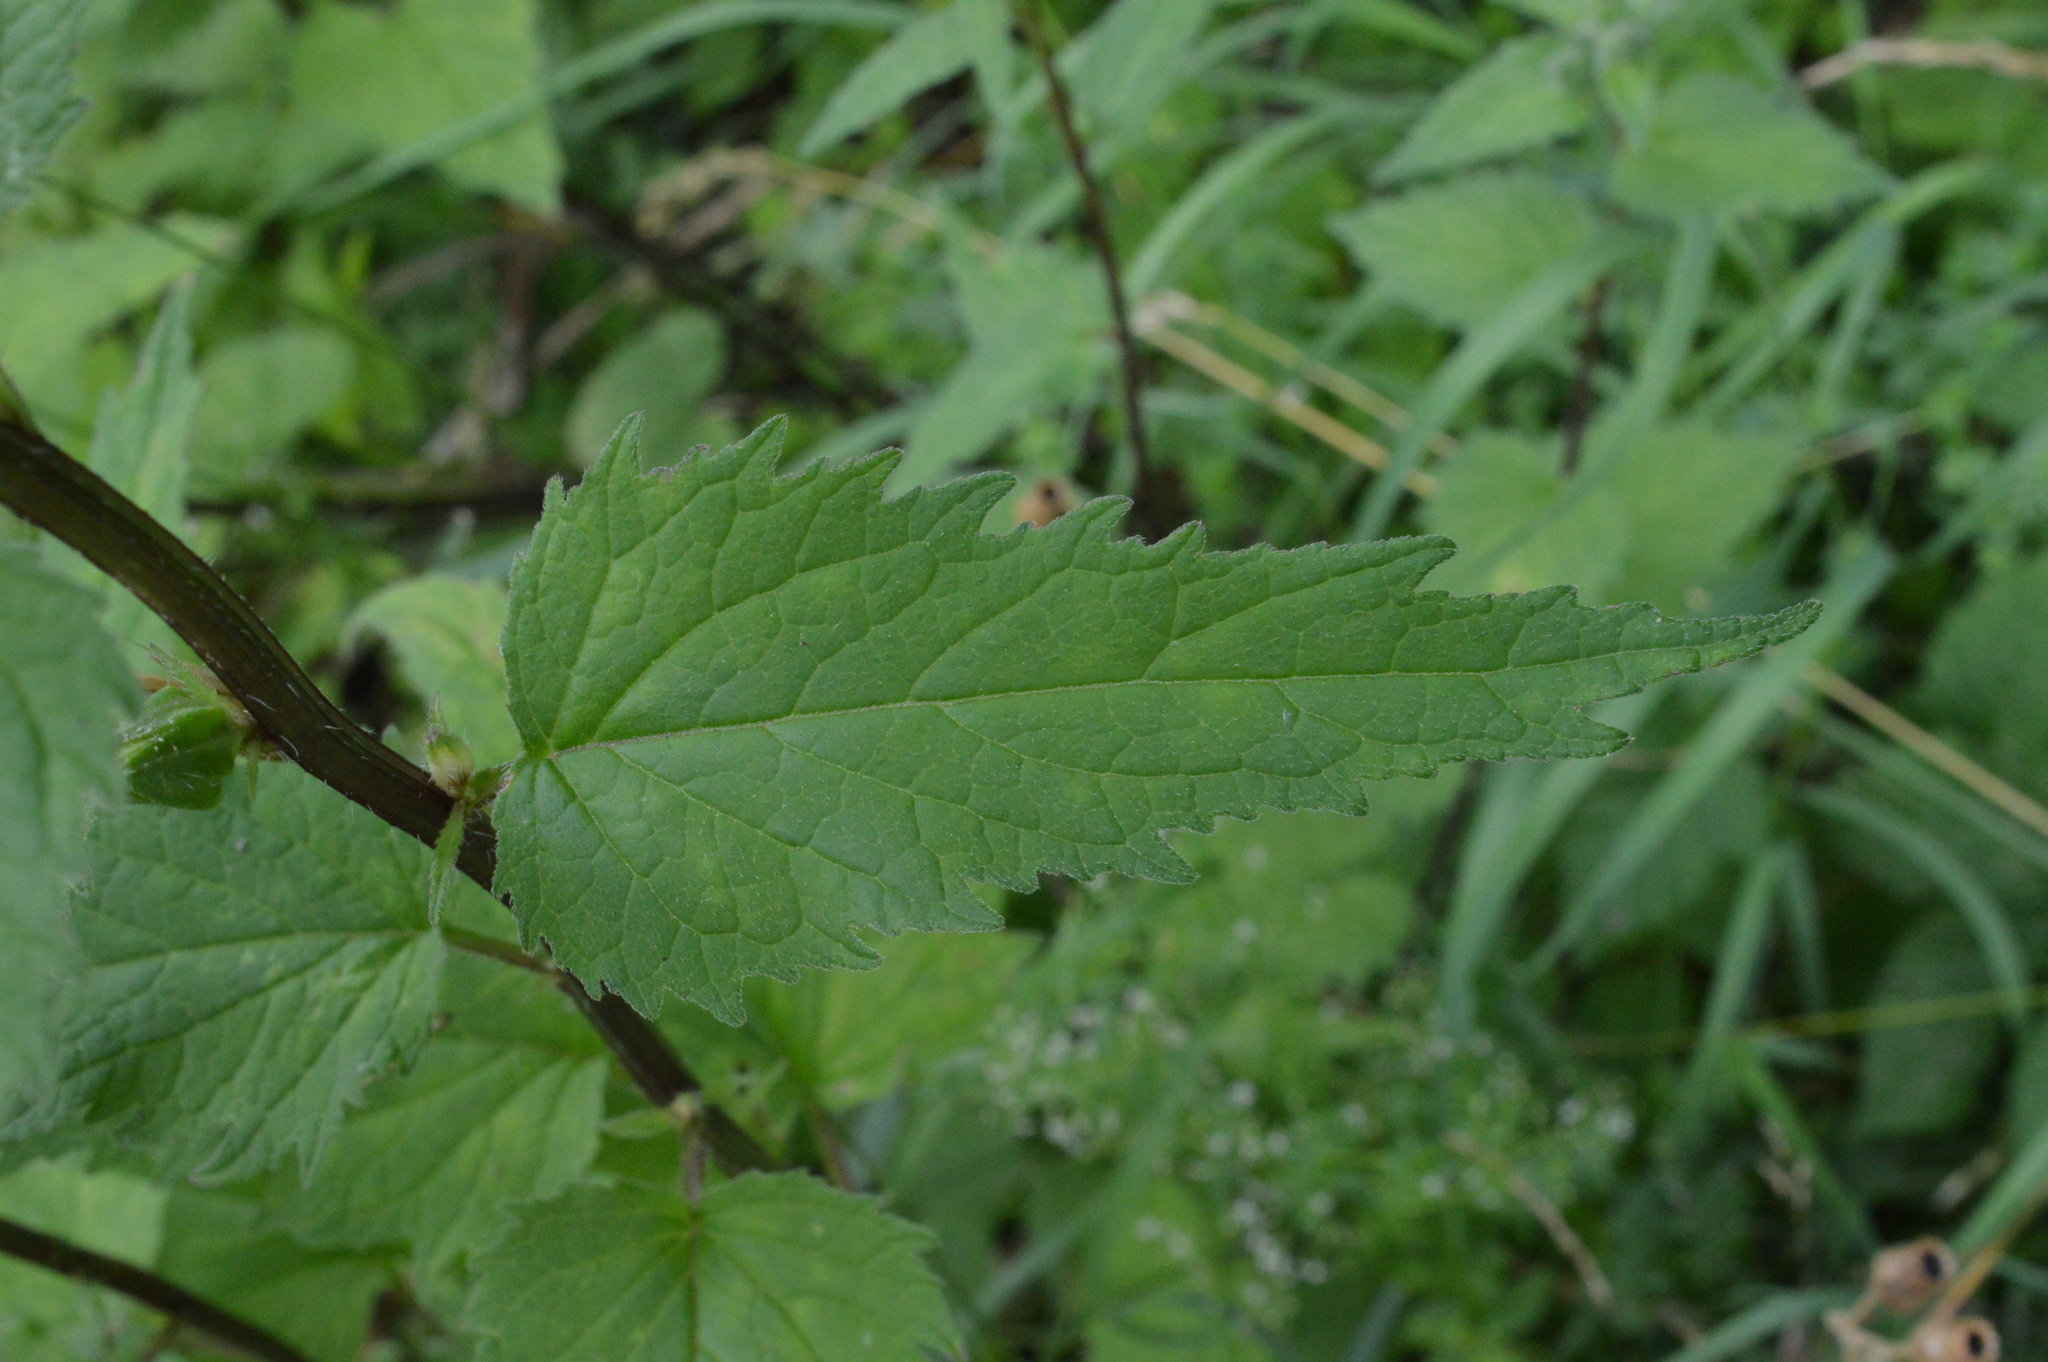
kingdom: Plantae
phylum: Tracheophyta
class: Magnoliopsida
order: Asterales
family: Campanulaceae
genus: Campanula
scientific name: Campanula trachelium
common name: Nettle-leaved bellflower
